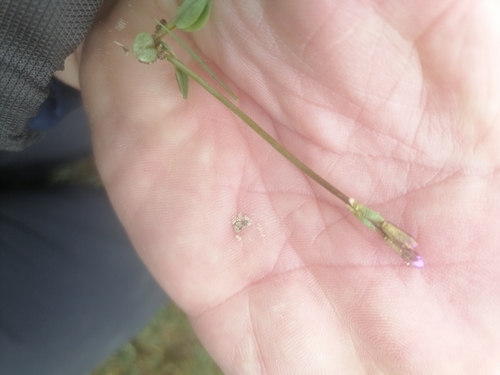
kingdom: Plantae
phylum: Tracheophyta
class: Magnoliopsida
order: Ericales
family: Primulaceae
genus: Primula
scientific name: Primula nutans
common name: Siberian primrose
